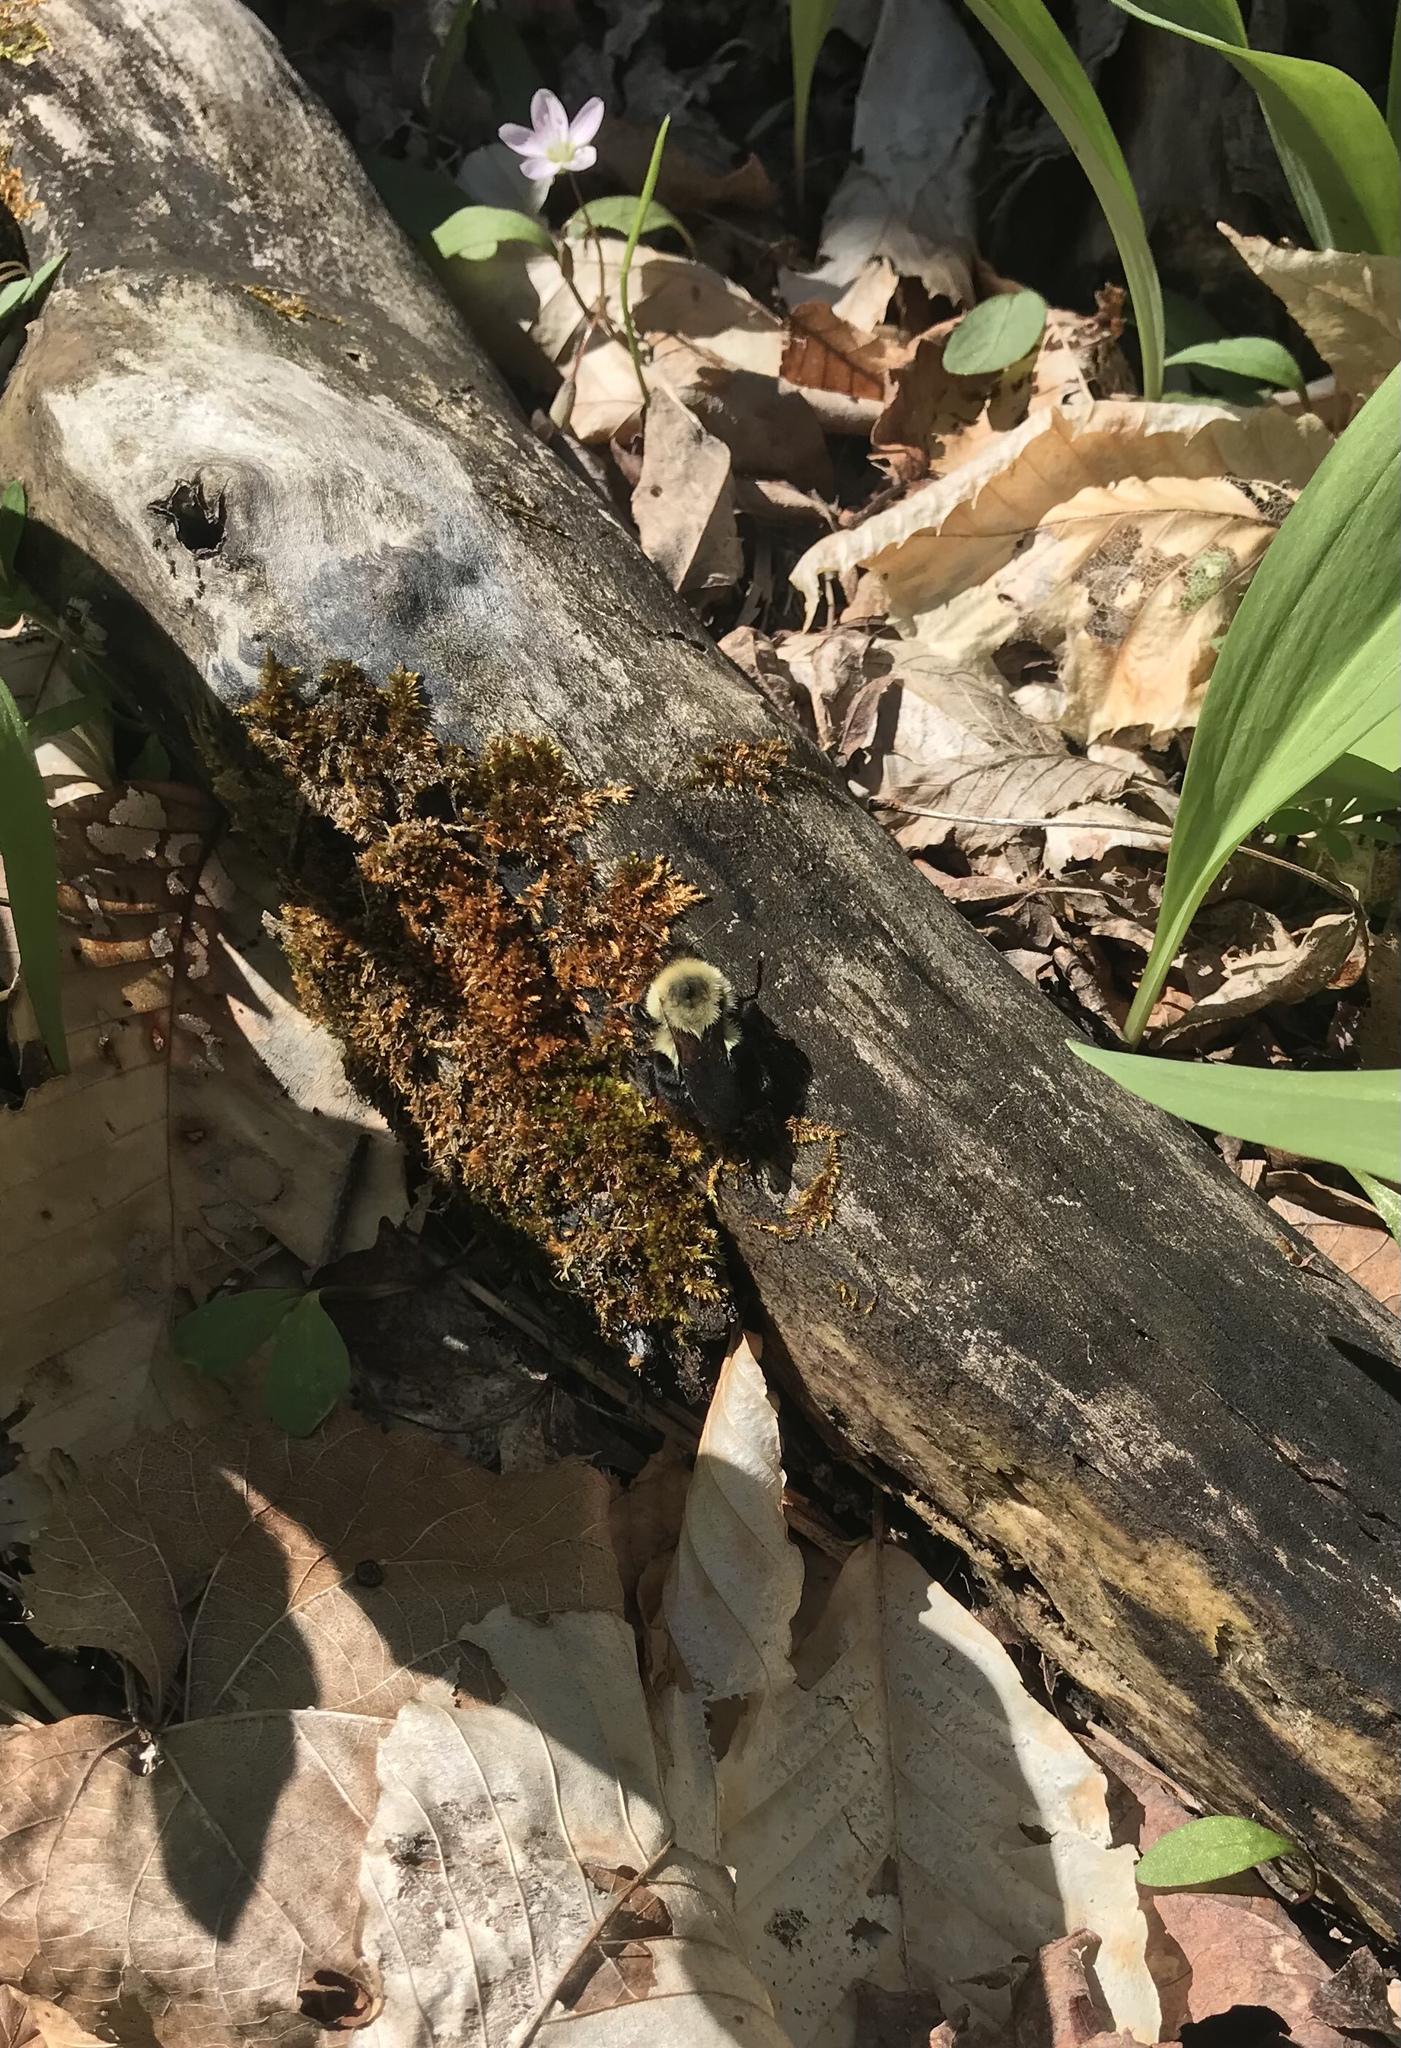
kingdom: Animalia
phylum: Arthropoda
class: Insecta
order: Hymenoptera
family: Apidae
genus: Bombus
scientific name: Bombus bimaculatus
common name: Two-spotted bumble bee
